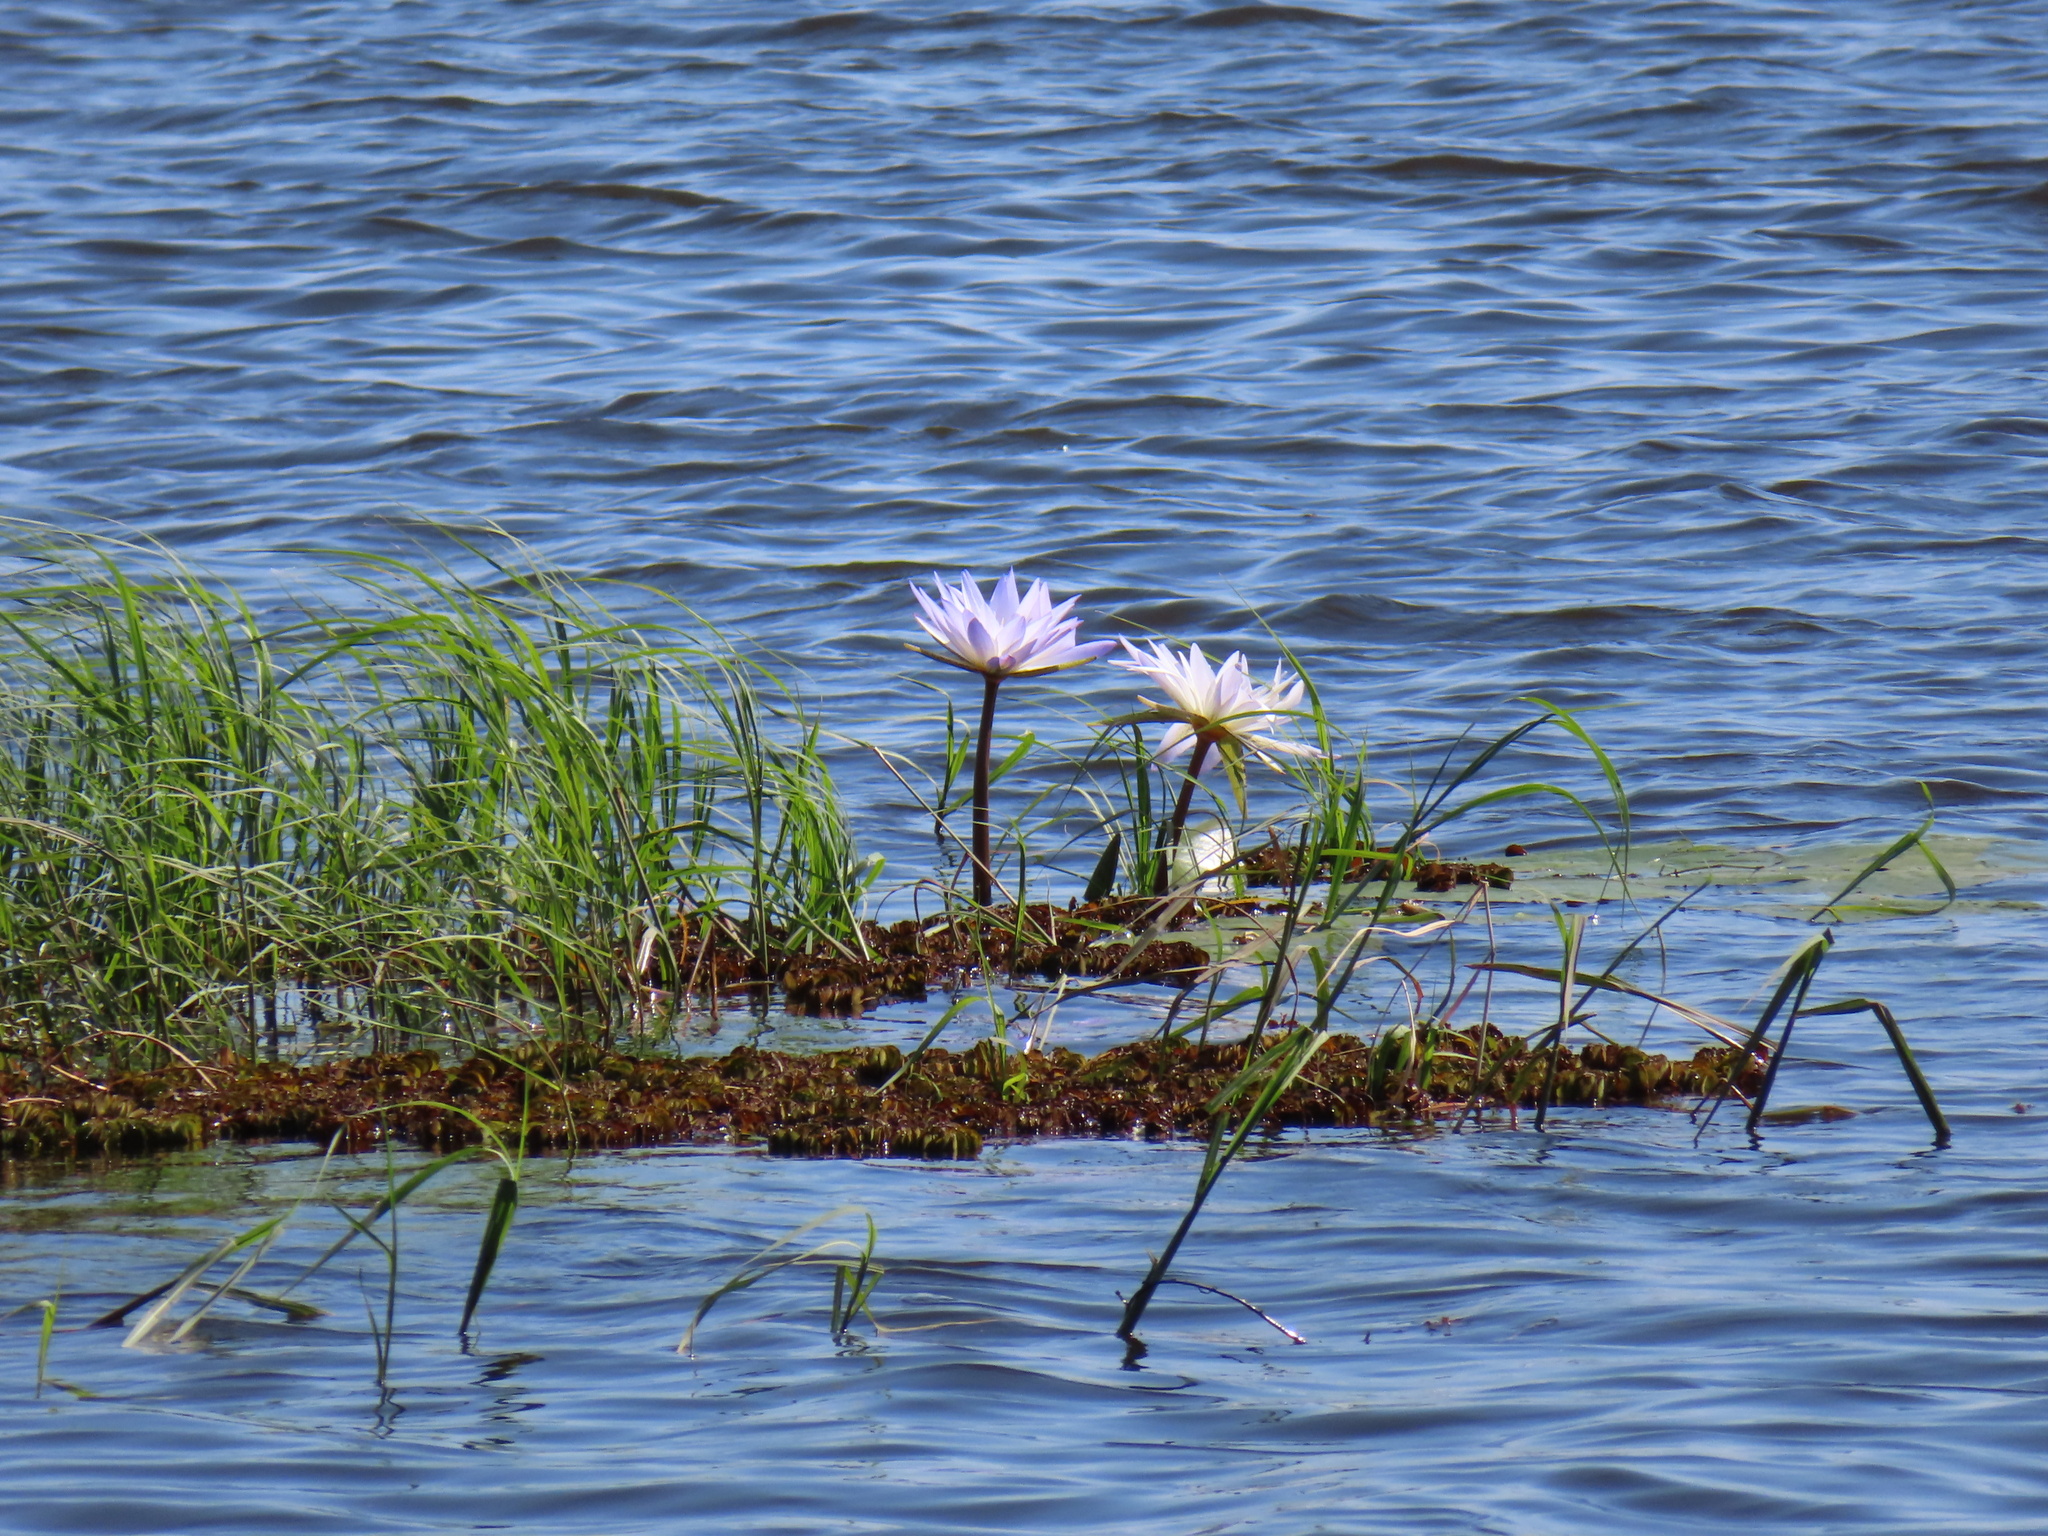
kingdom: Plantae
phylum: Tracheophyta
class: Magnoliopsida
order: Nymphaeales
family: Nymphaeaceae
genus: Nymphaea
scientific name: Nymphaea nouchali
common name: Blue lotus
